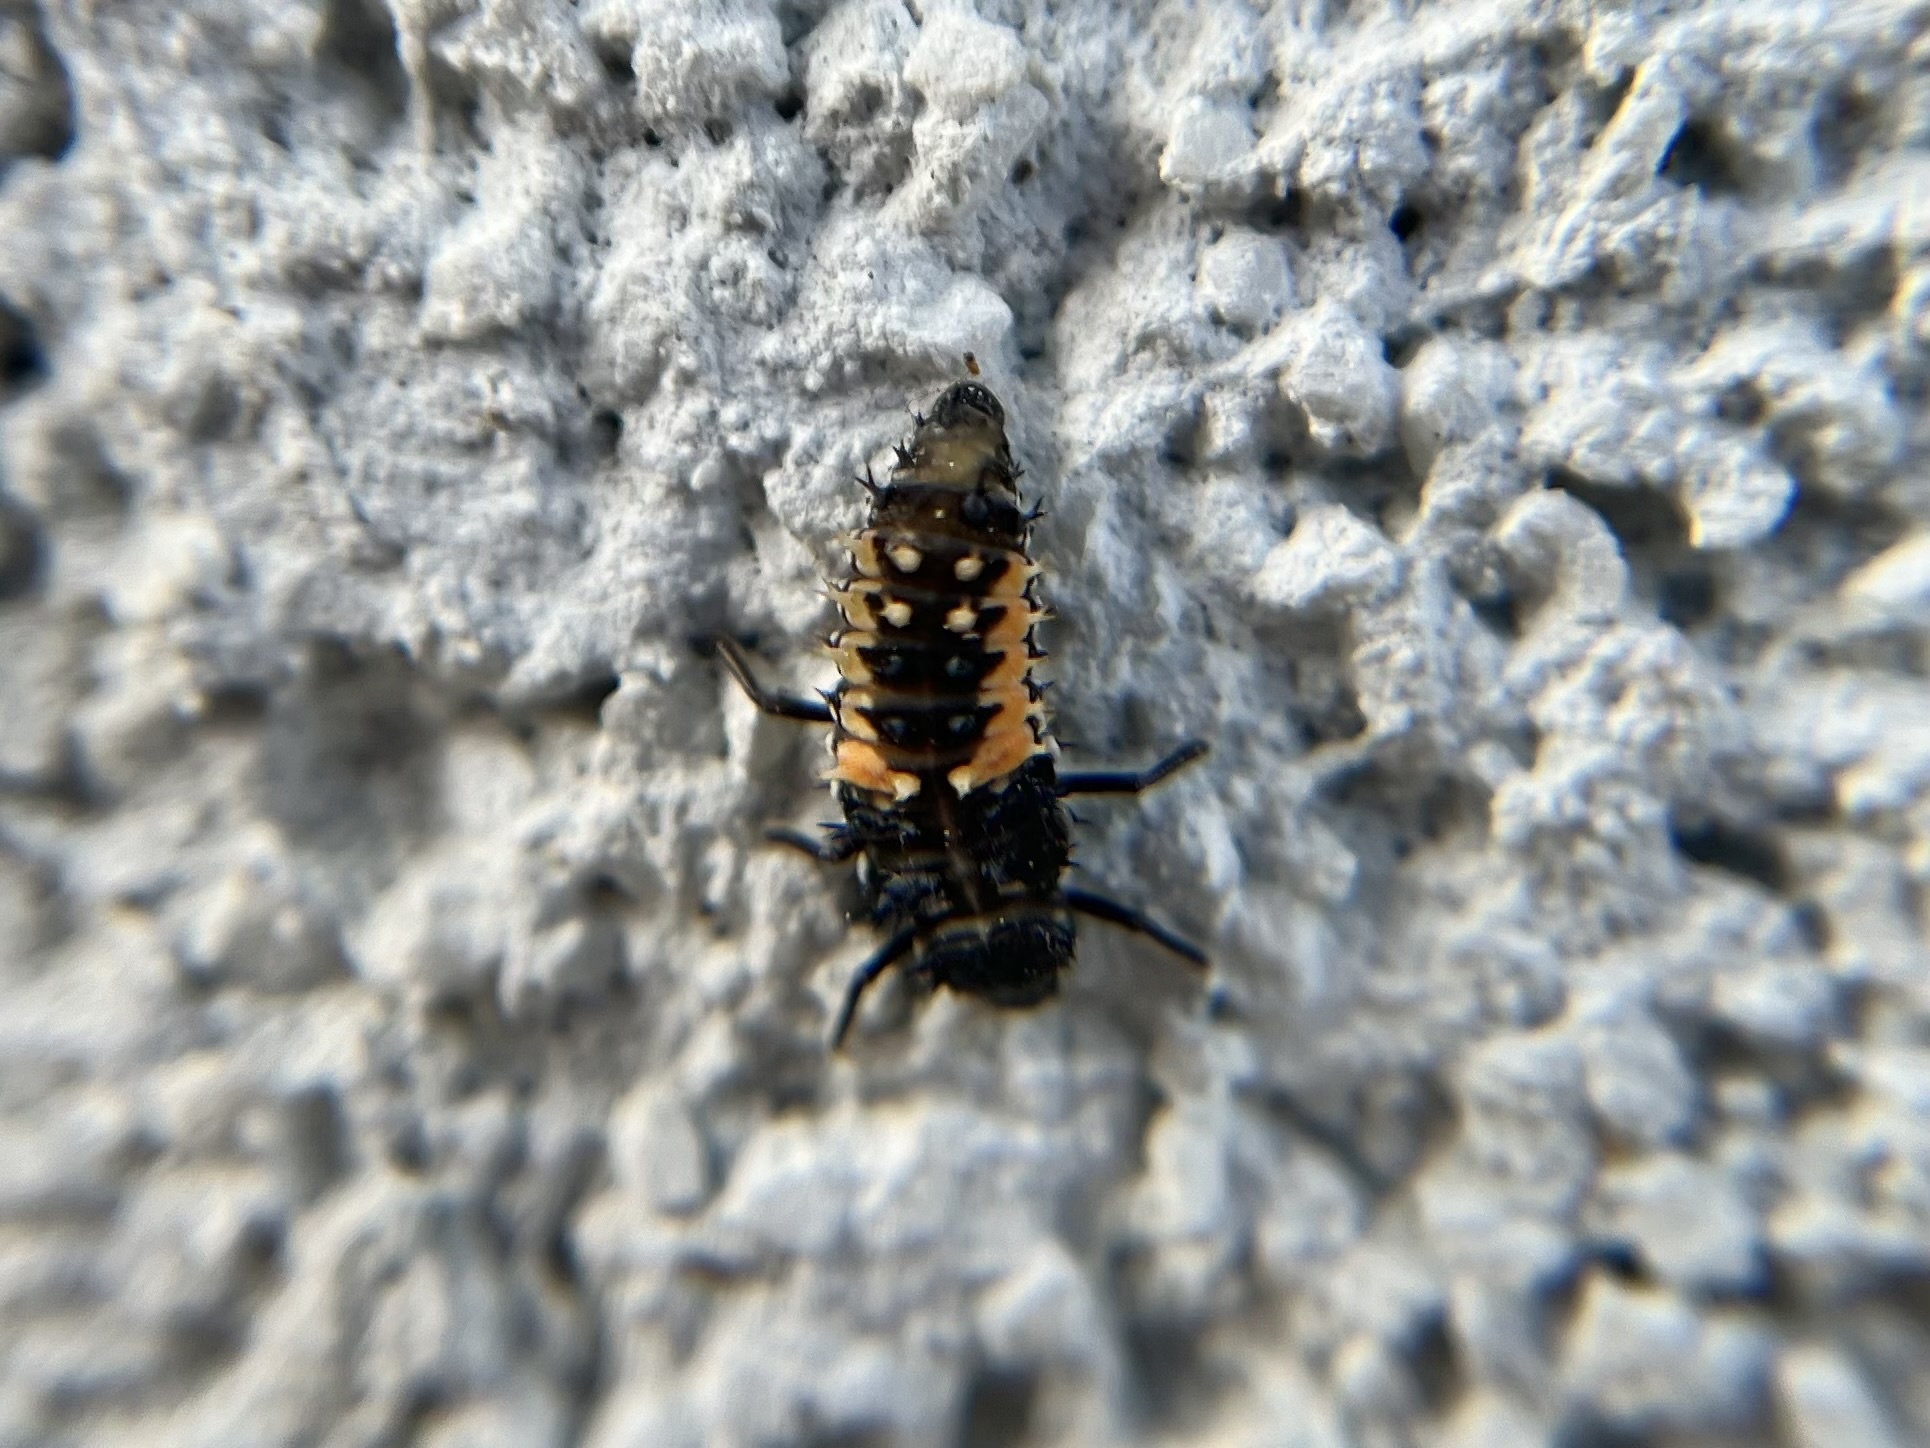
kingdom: Animalia
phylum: Arthropoda
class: Insecta
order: Coleoptera
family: Coccinellidae
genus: Harmonia
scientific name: Harmonia axyridis
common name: Harlequin ladybird
